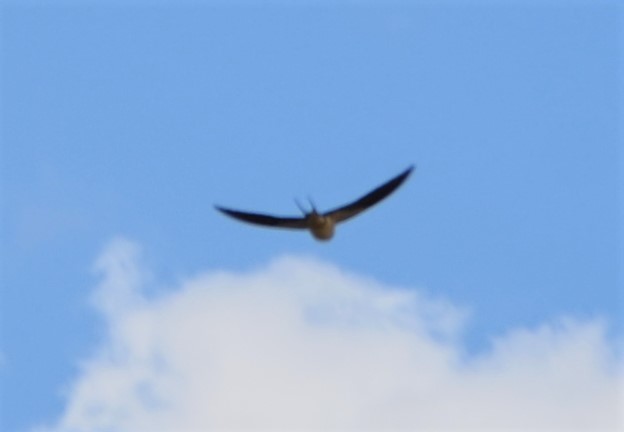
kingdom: Animalia
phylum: Chordata
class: Aves
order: Passeriformes
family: Hirundinidae
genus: Hirundo
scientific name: Hirundo rustica
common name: Barn swallow
